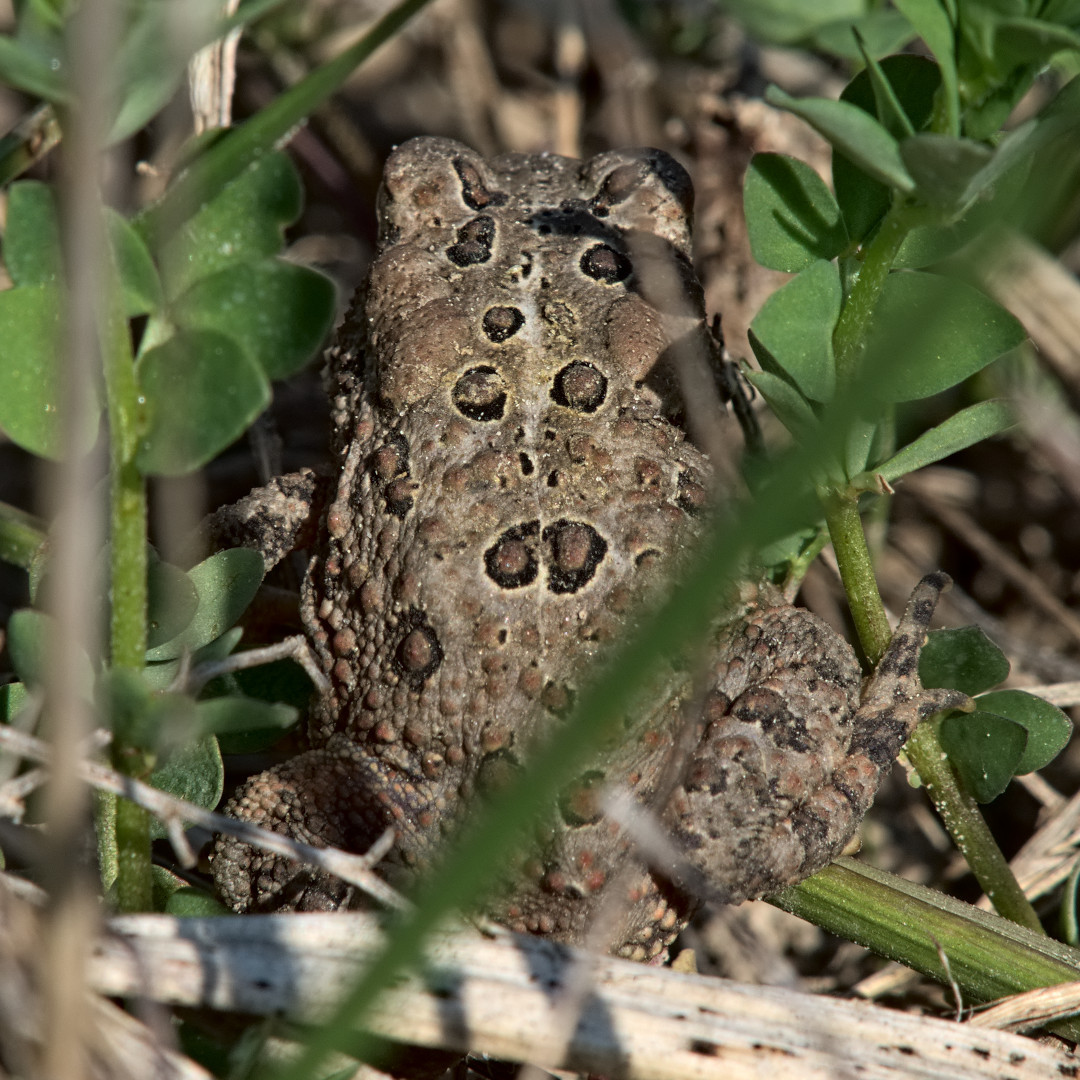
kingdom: Animalia
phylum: Chordata
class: Amphibia
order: Anura
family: Bufonidae
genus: Anaxyrus
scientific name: Anaxyrus americanus
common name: American toad
